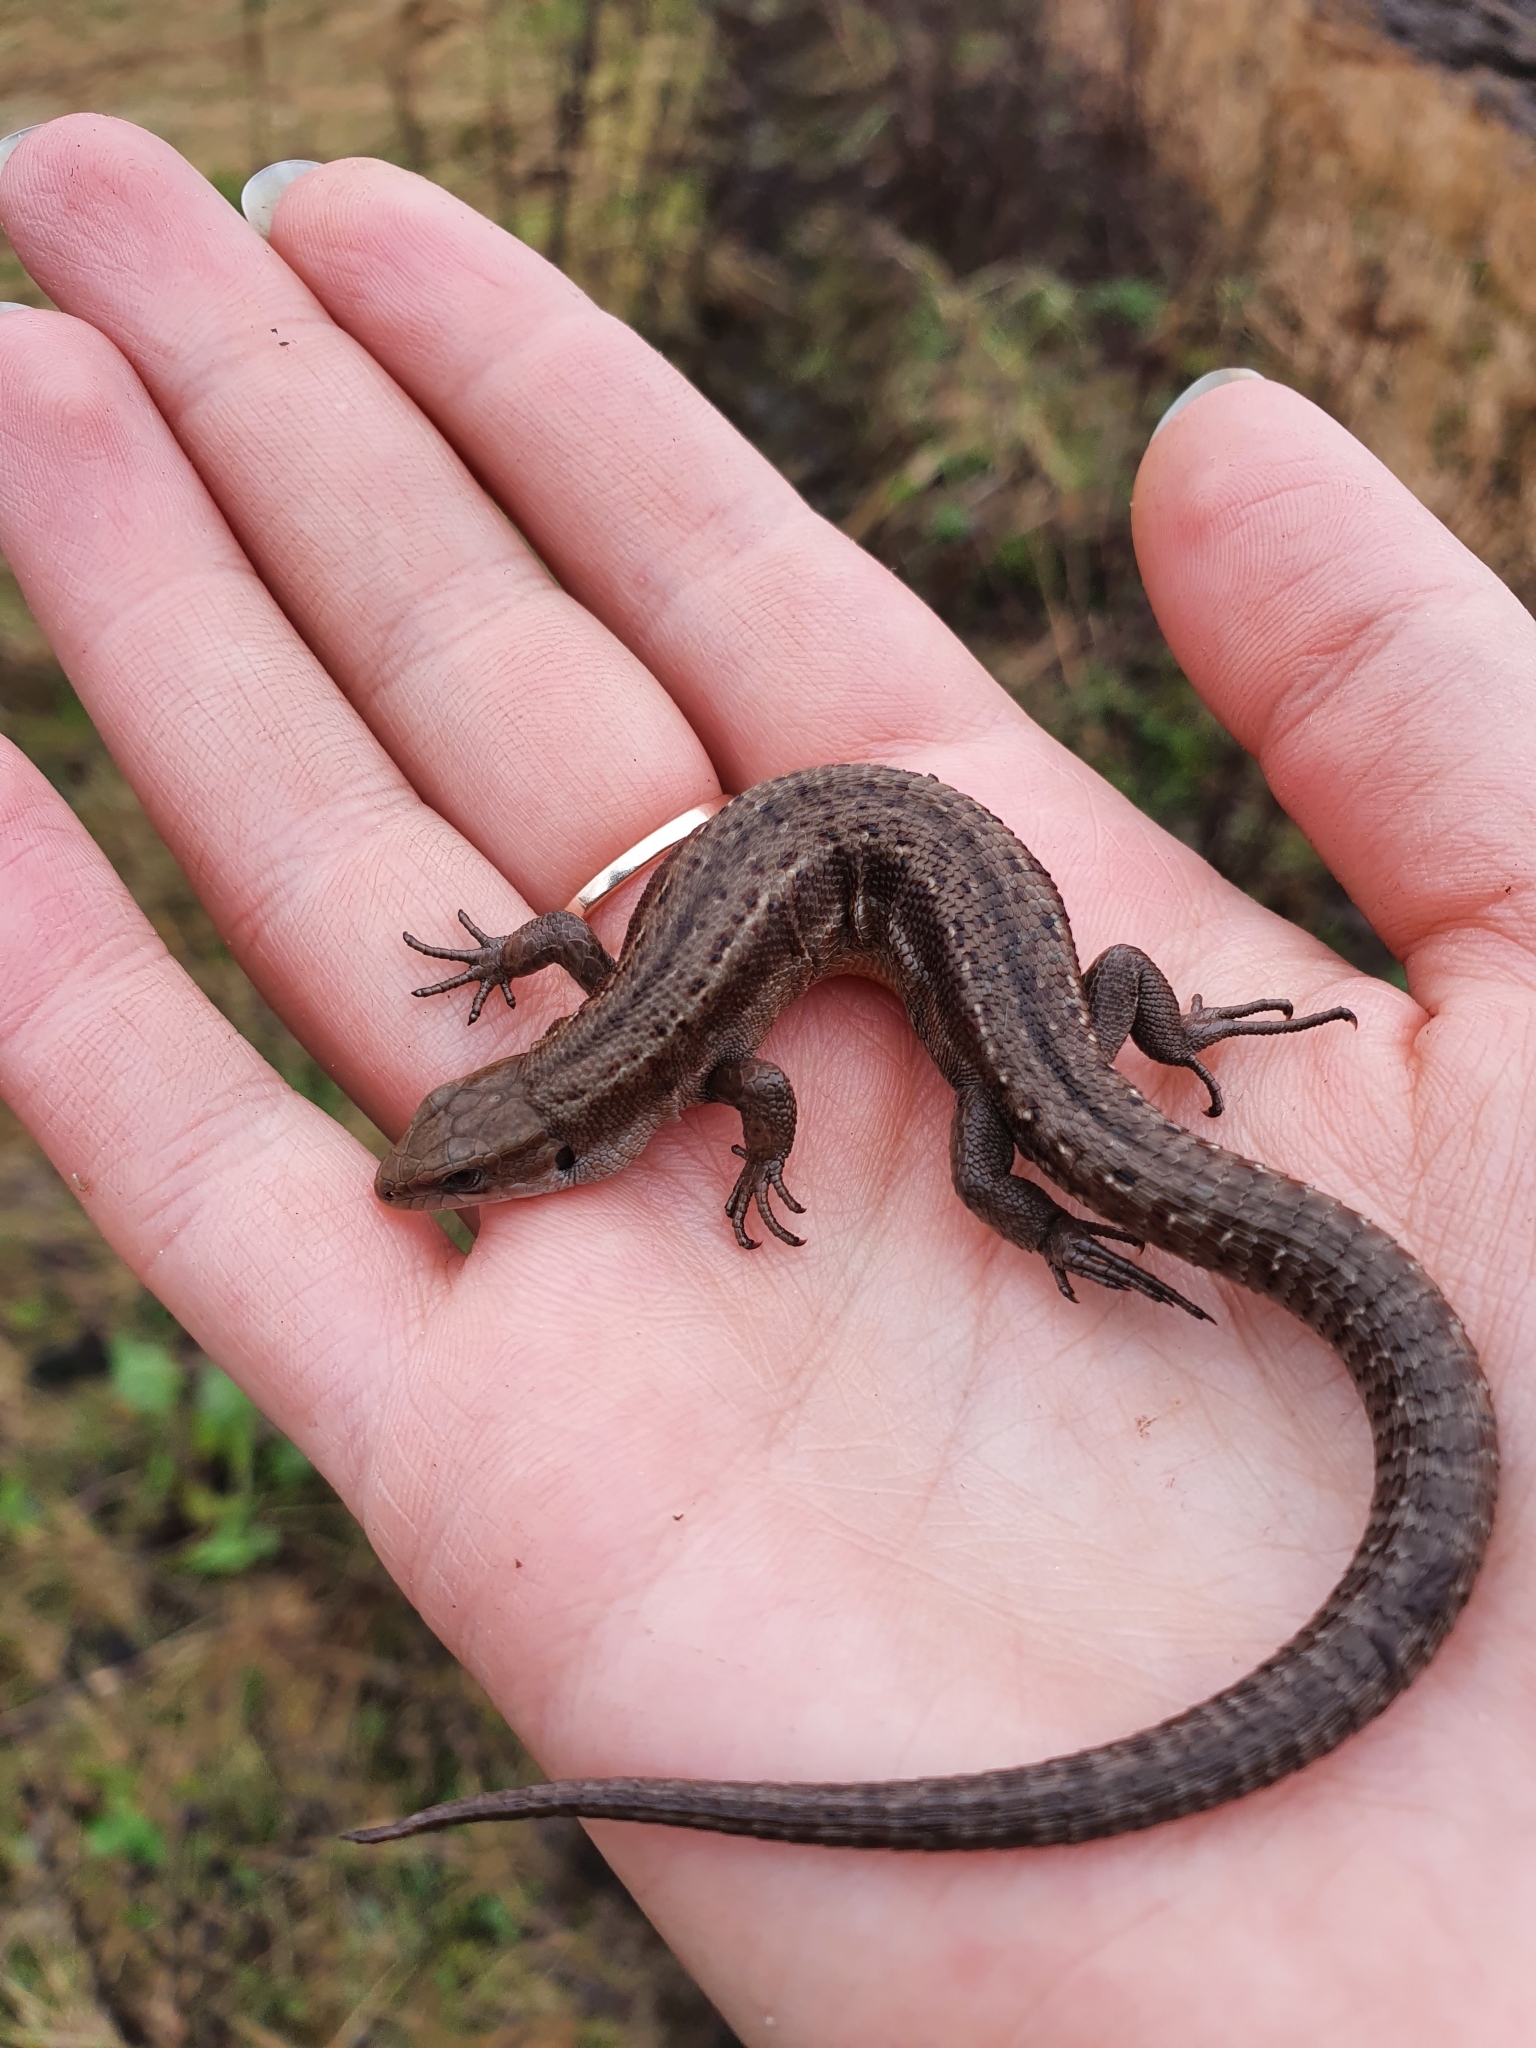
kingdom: Animalia
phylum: Chordata
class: Squamata
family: Lacertidae
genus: Zootoca
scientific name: Zootoca vivipara
